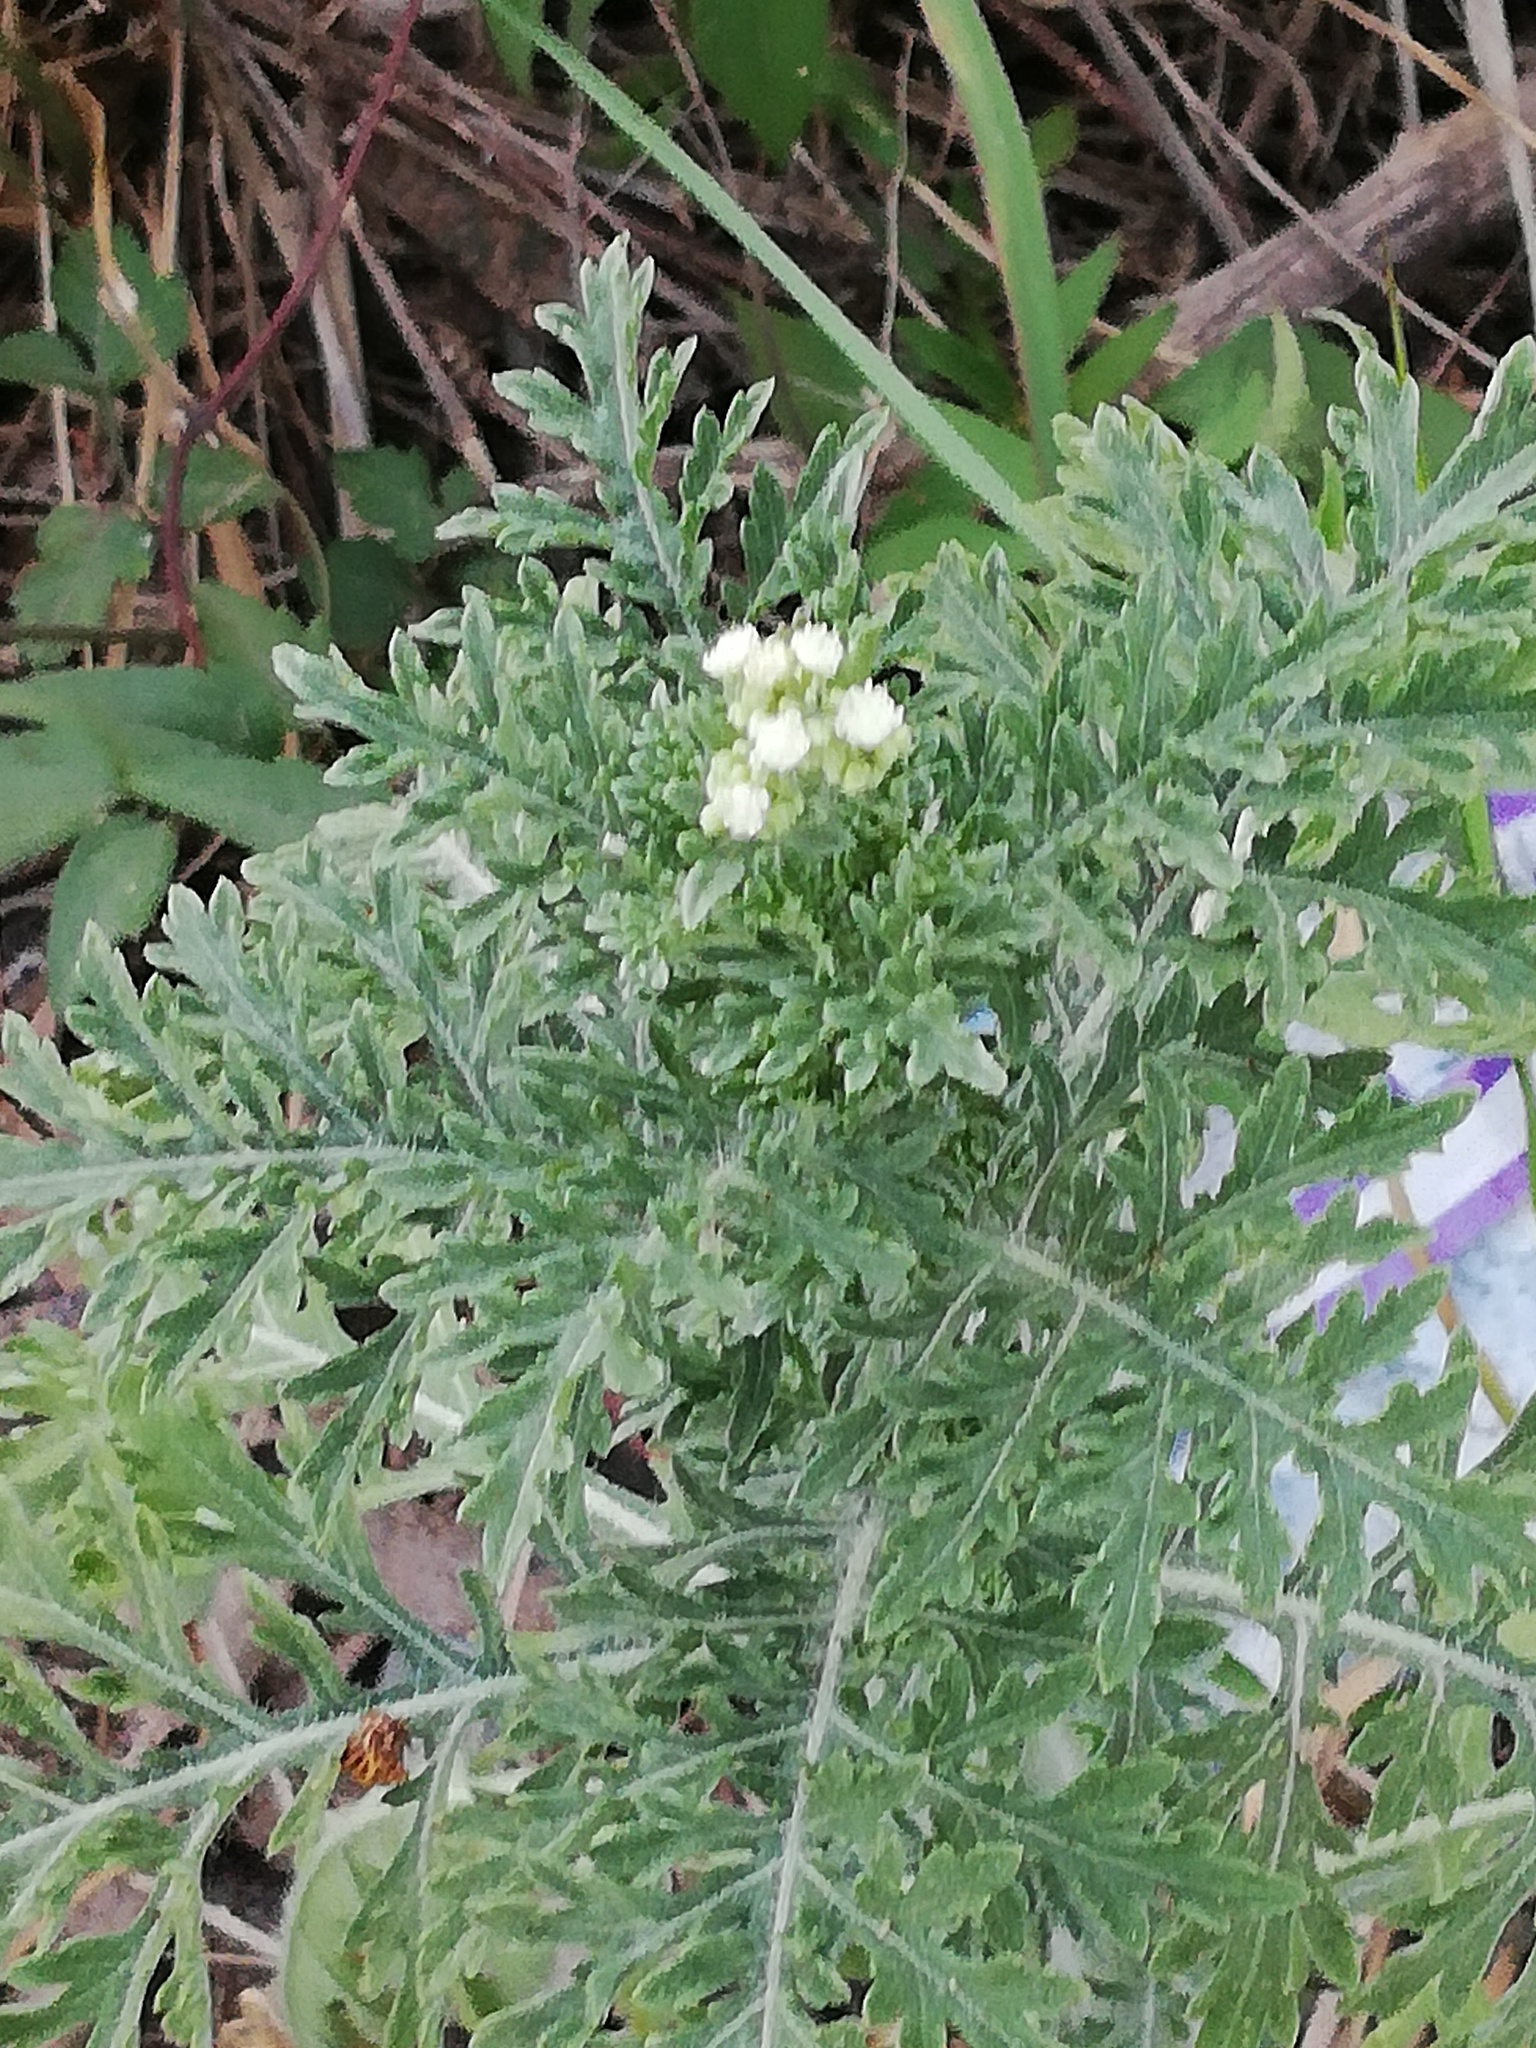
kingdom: Plantae
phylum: Tracheophyta
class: Magnoliopsida
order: Asterales
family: Asteraceae
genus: Parthenium
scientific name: Parthenium bipinnatifidum
